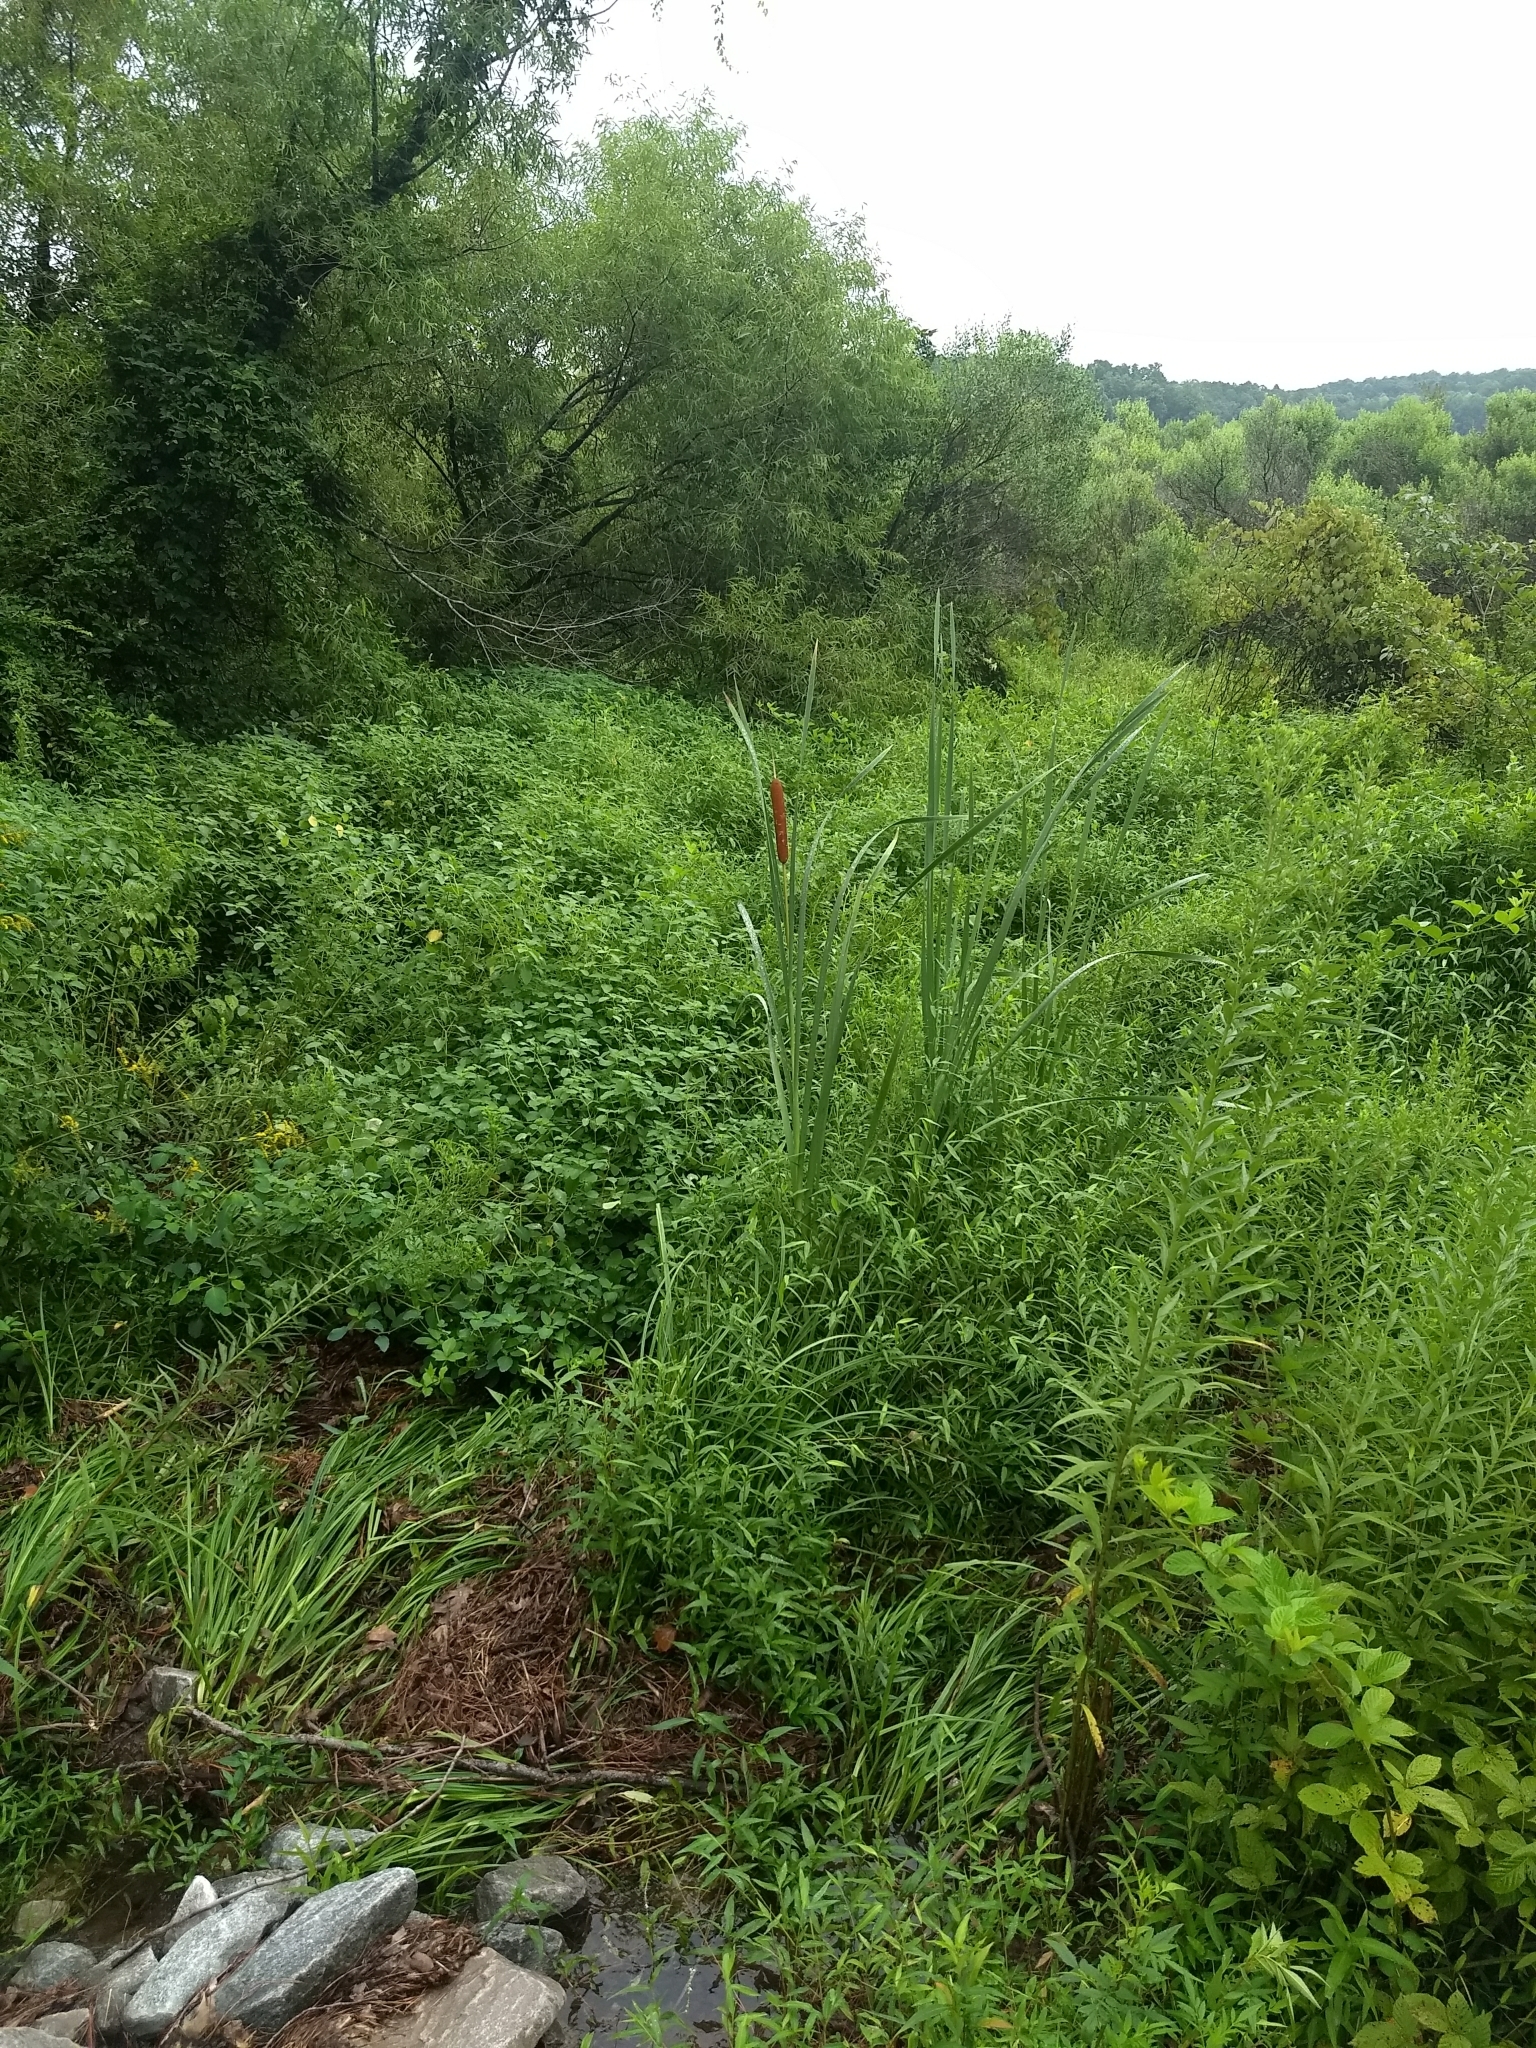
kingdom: Plantae
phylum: Tracheophyta
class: Liliopsida
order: Poales
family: Typhaceae
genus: Typha
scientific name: Typha latifolia
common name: Broadleaf cattail
